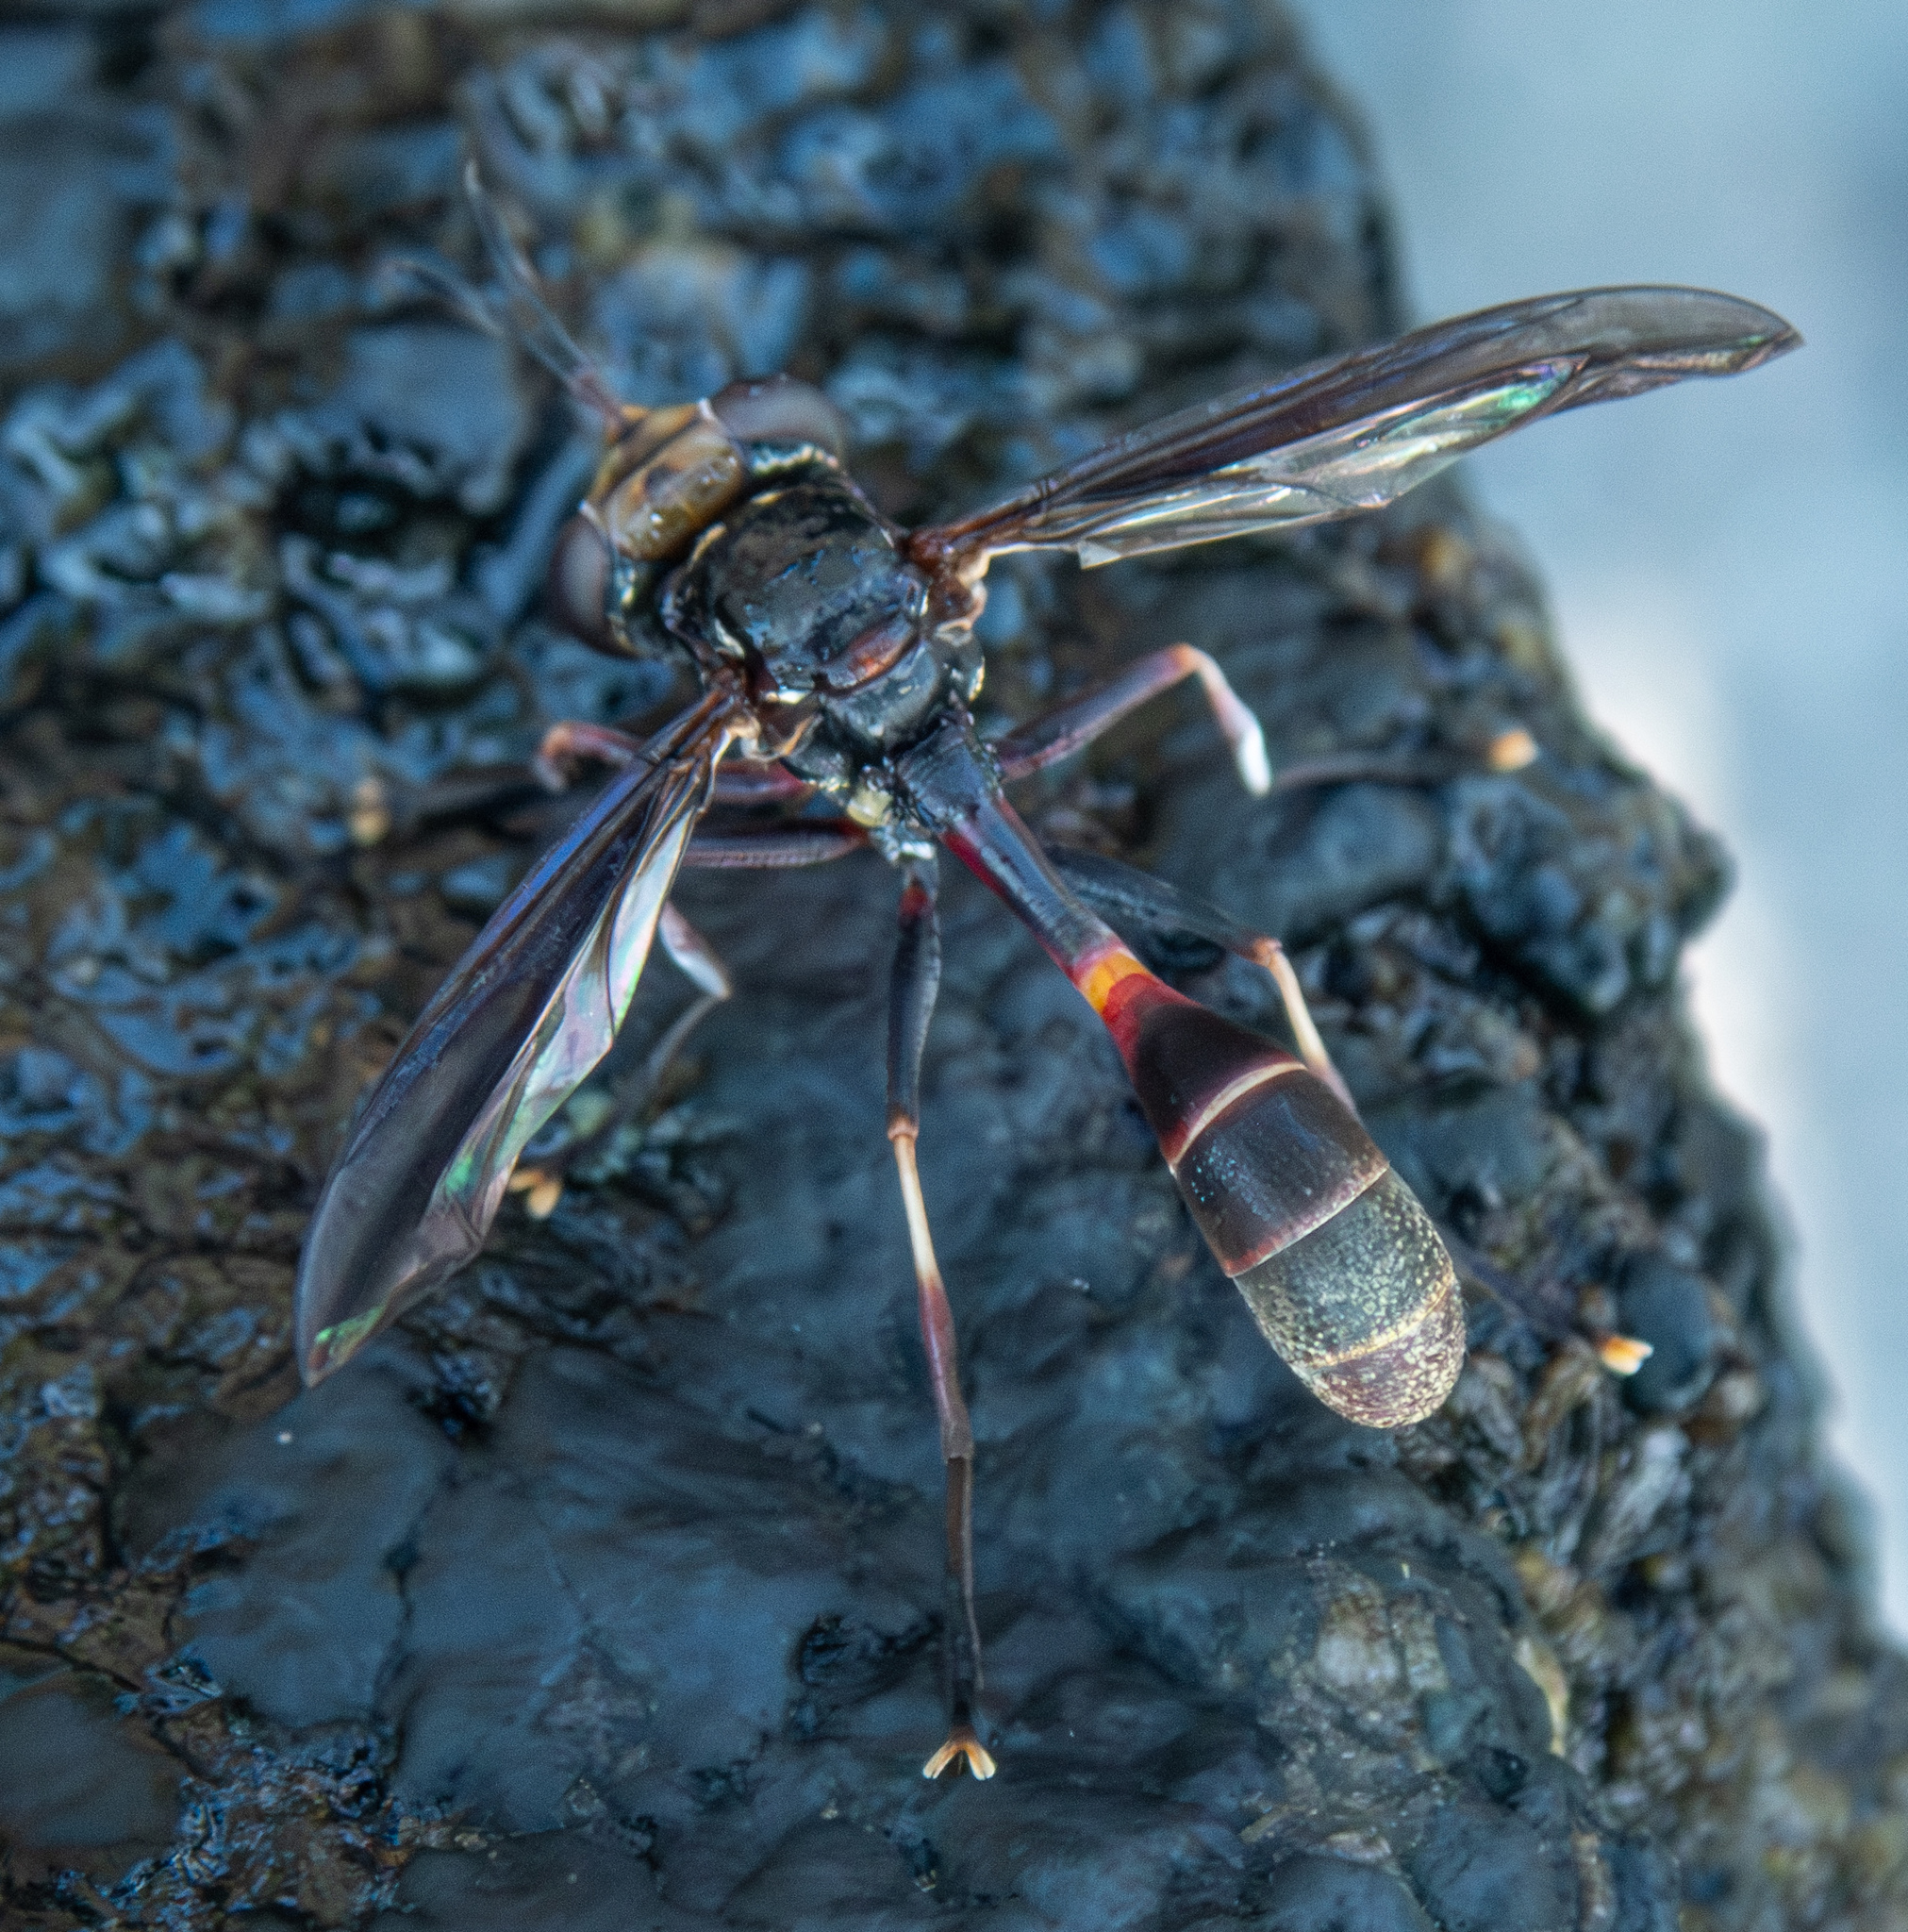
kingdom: Animalia
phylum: Arthropoda
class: Insecta
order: Diptera
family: Conopidae
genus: Physoconops
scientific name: Physoconops pallifrons
